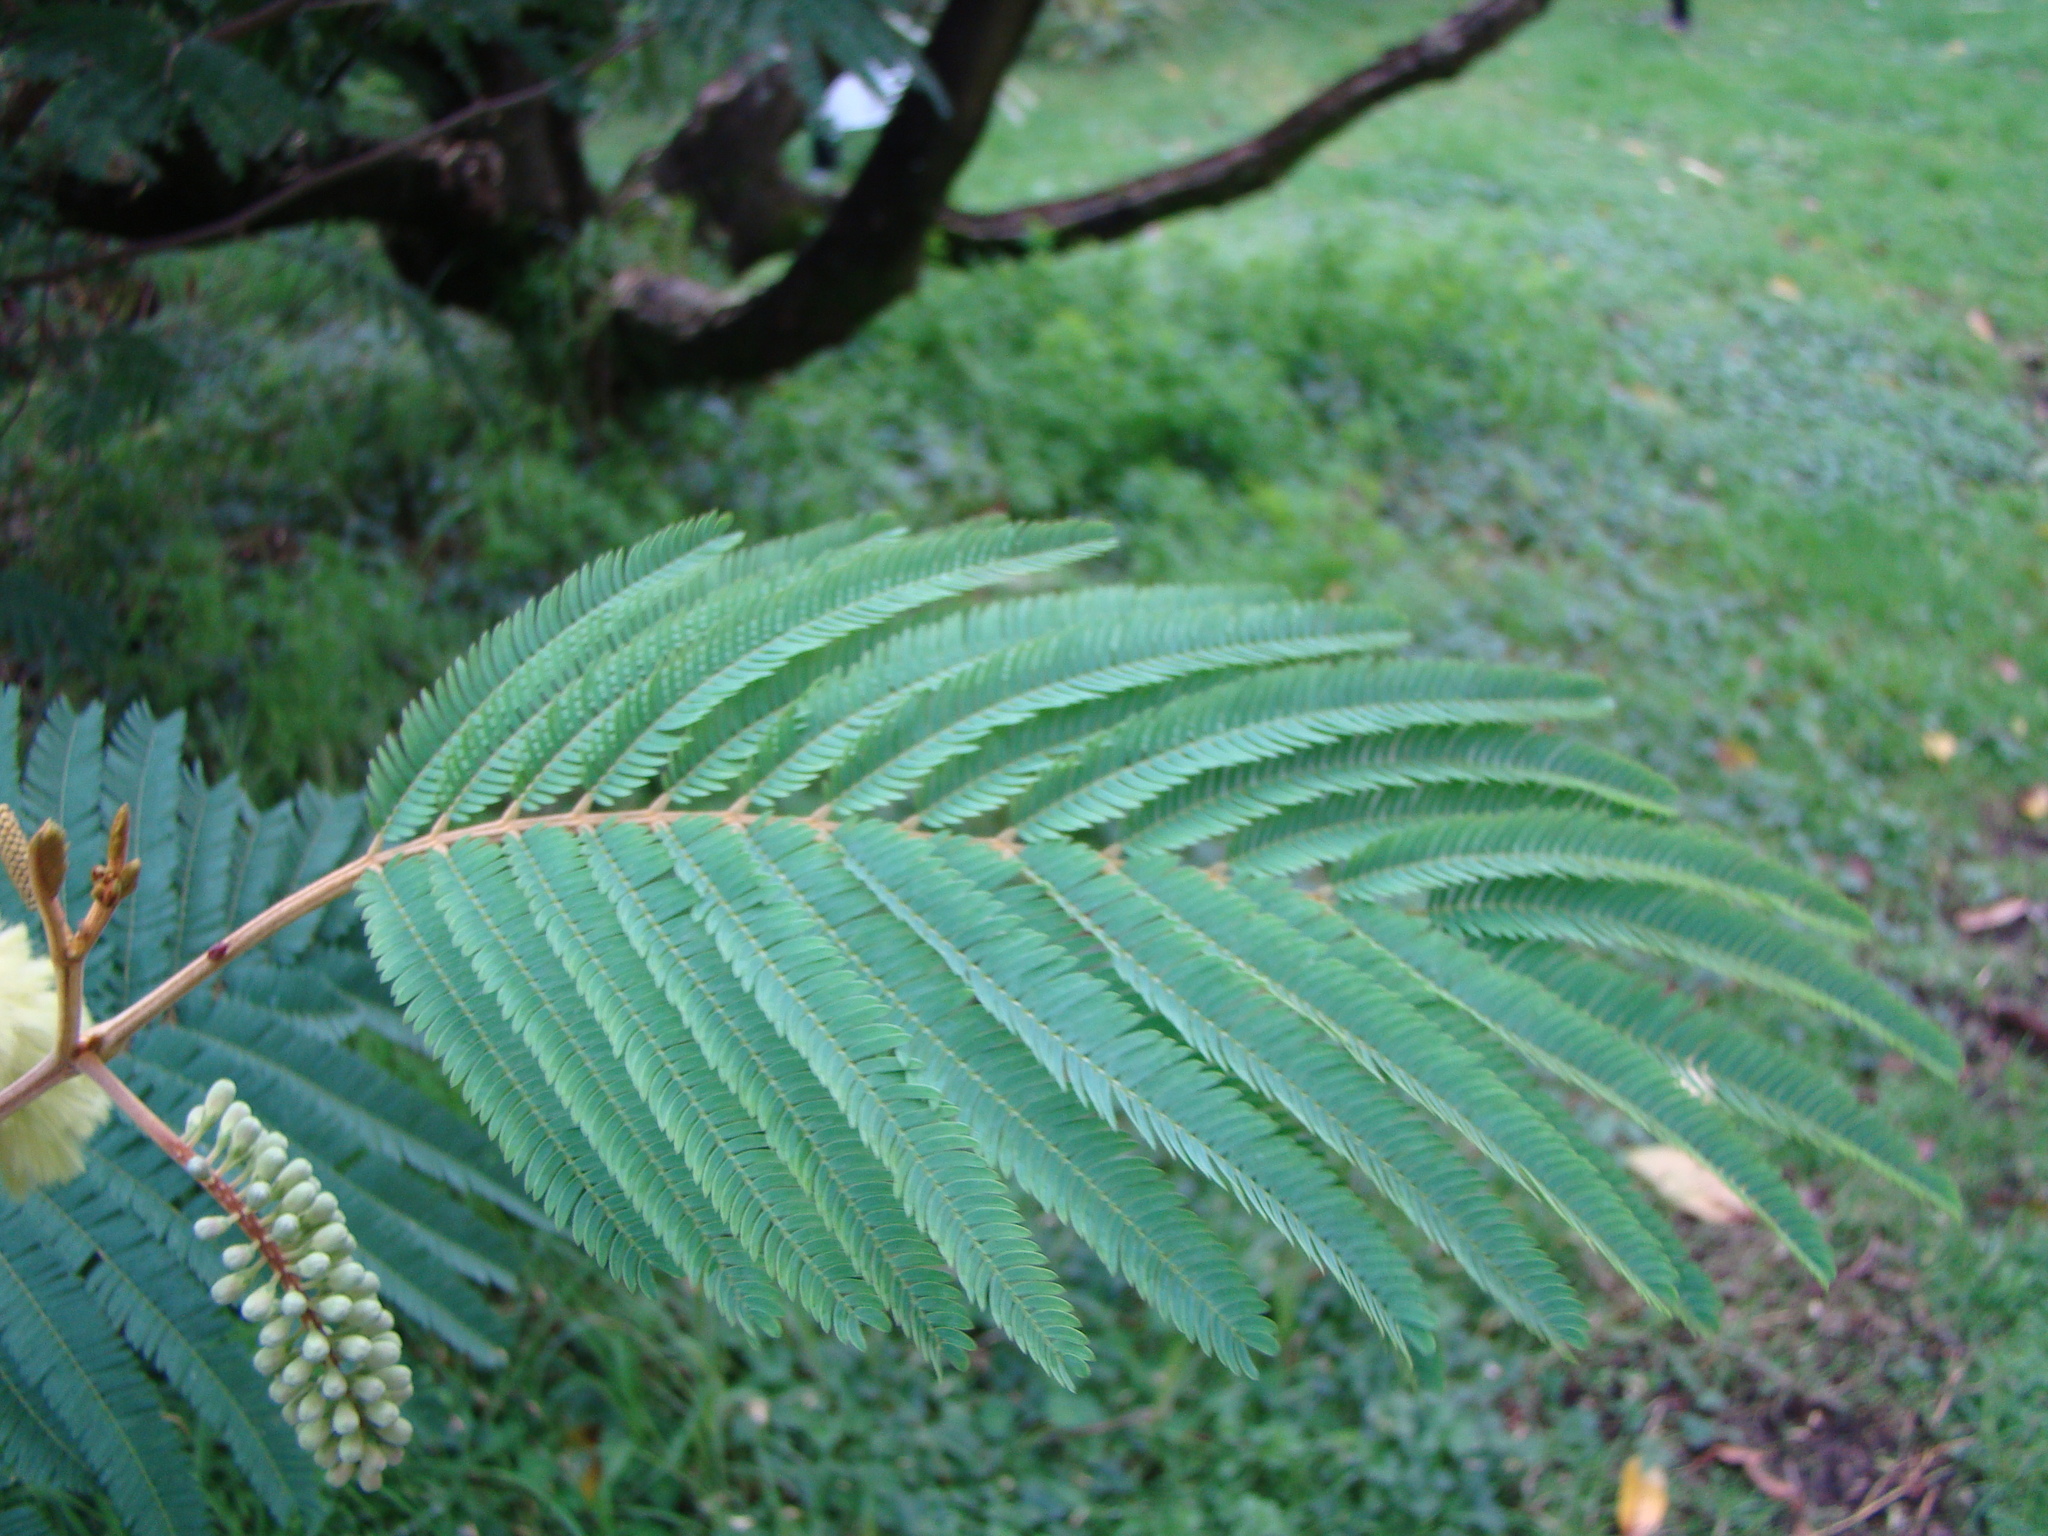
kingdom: Plantae
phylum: Tracheophyta
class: Magnoliopsida
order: Fabales
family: Fabaceae
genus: Paraserianthes
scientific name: Paraserianthes lophantha
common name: Plume albizia
